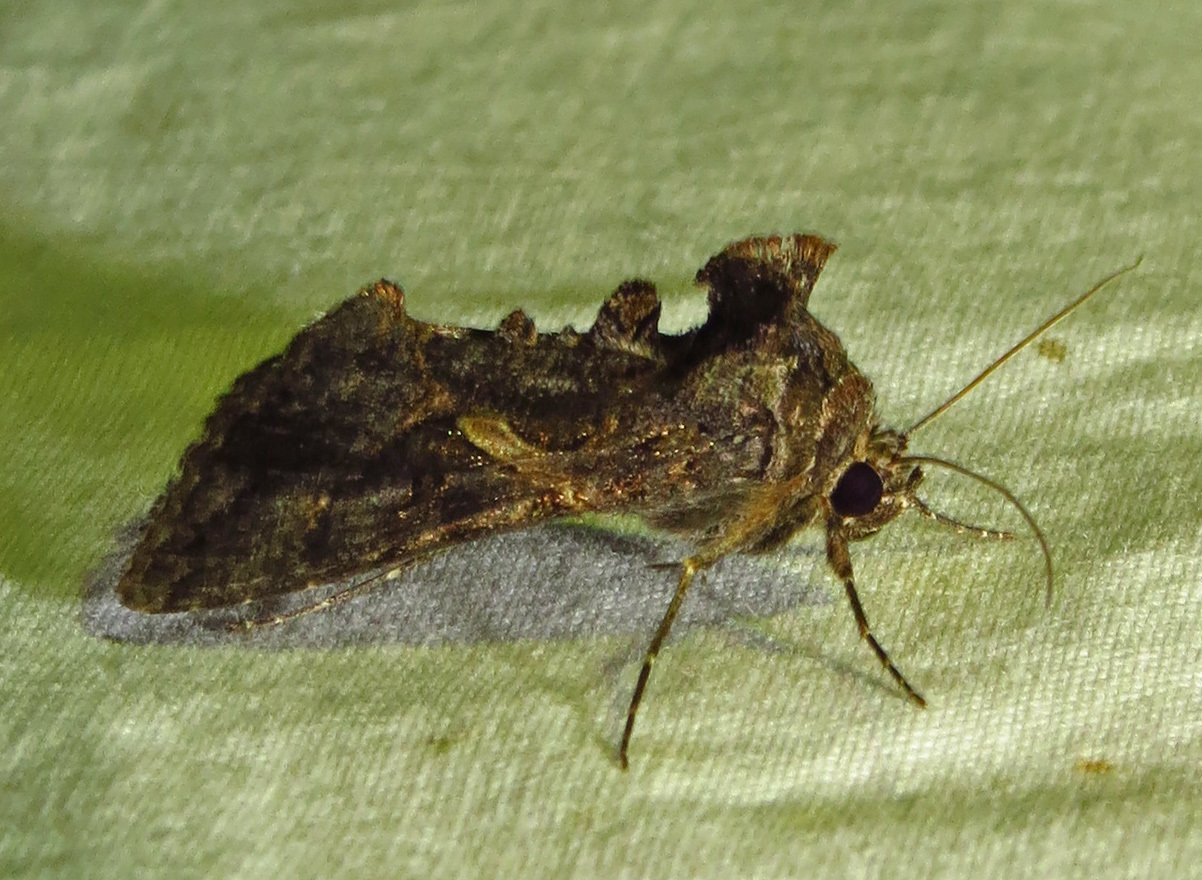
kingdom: Animalia
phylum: Arthropoda
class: Insecta
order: Lepidoptera
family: Noctuidae
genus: Ctenoplusia
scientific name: Ctenoplusia oxygramma
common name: Sharp-stigma looper moth
